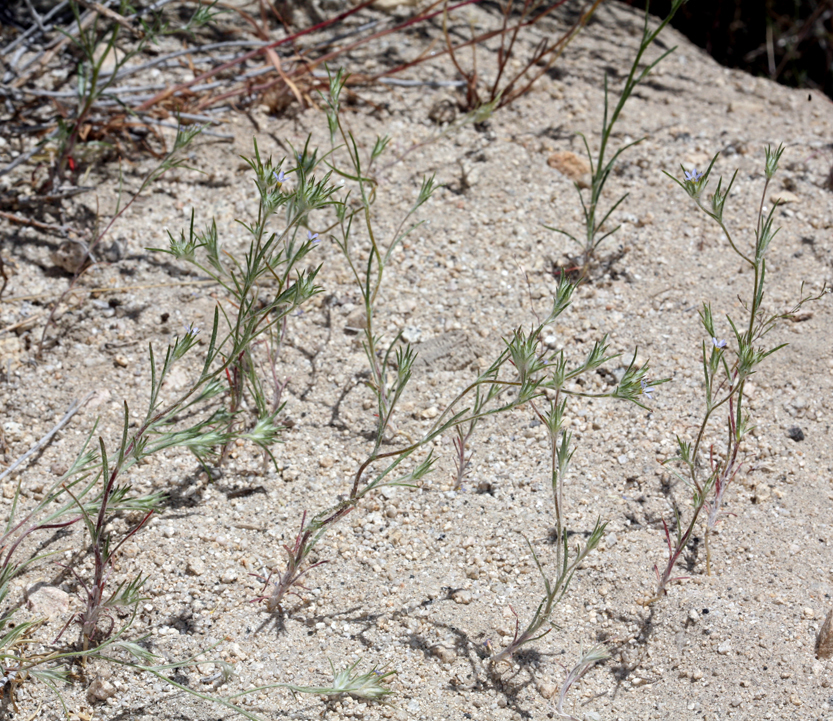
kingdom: Plantae
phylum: Tracheophyta
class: Magnoliopsida
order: Ericales
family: Polemoniaceae
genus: Eriastrum
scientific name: Eriastrum signatum
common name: Great basin woollystar
